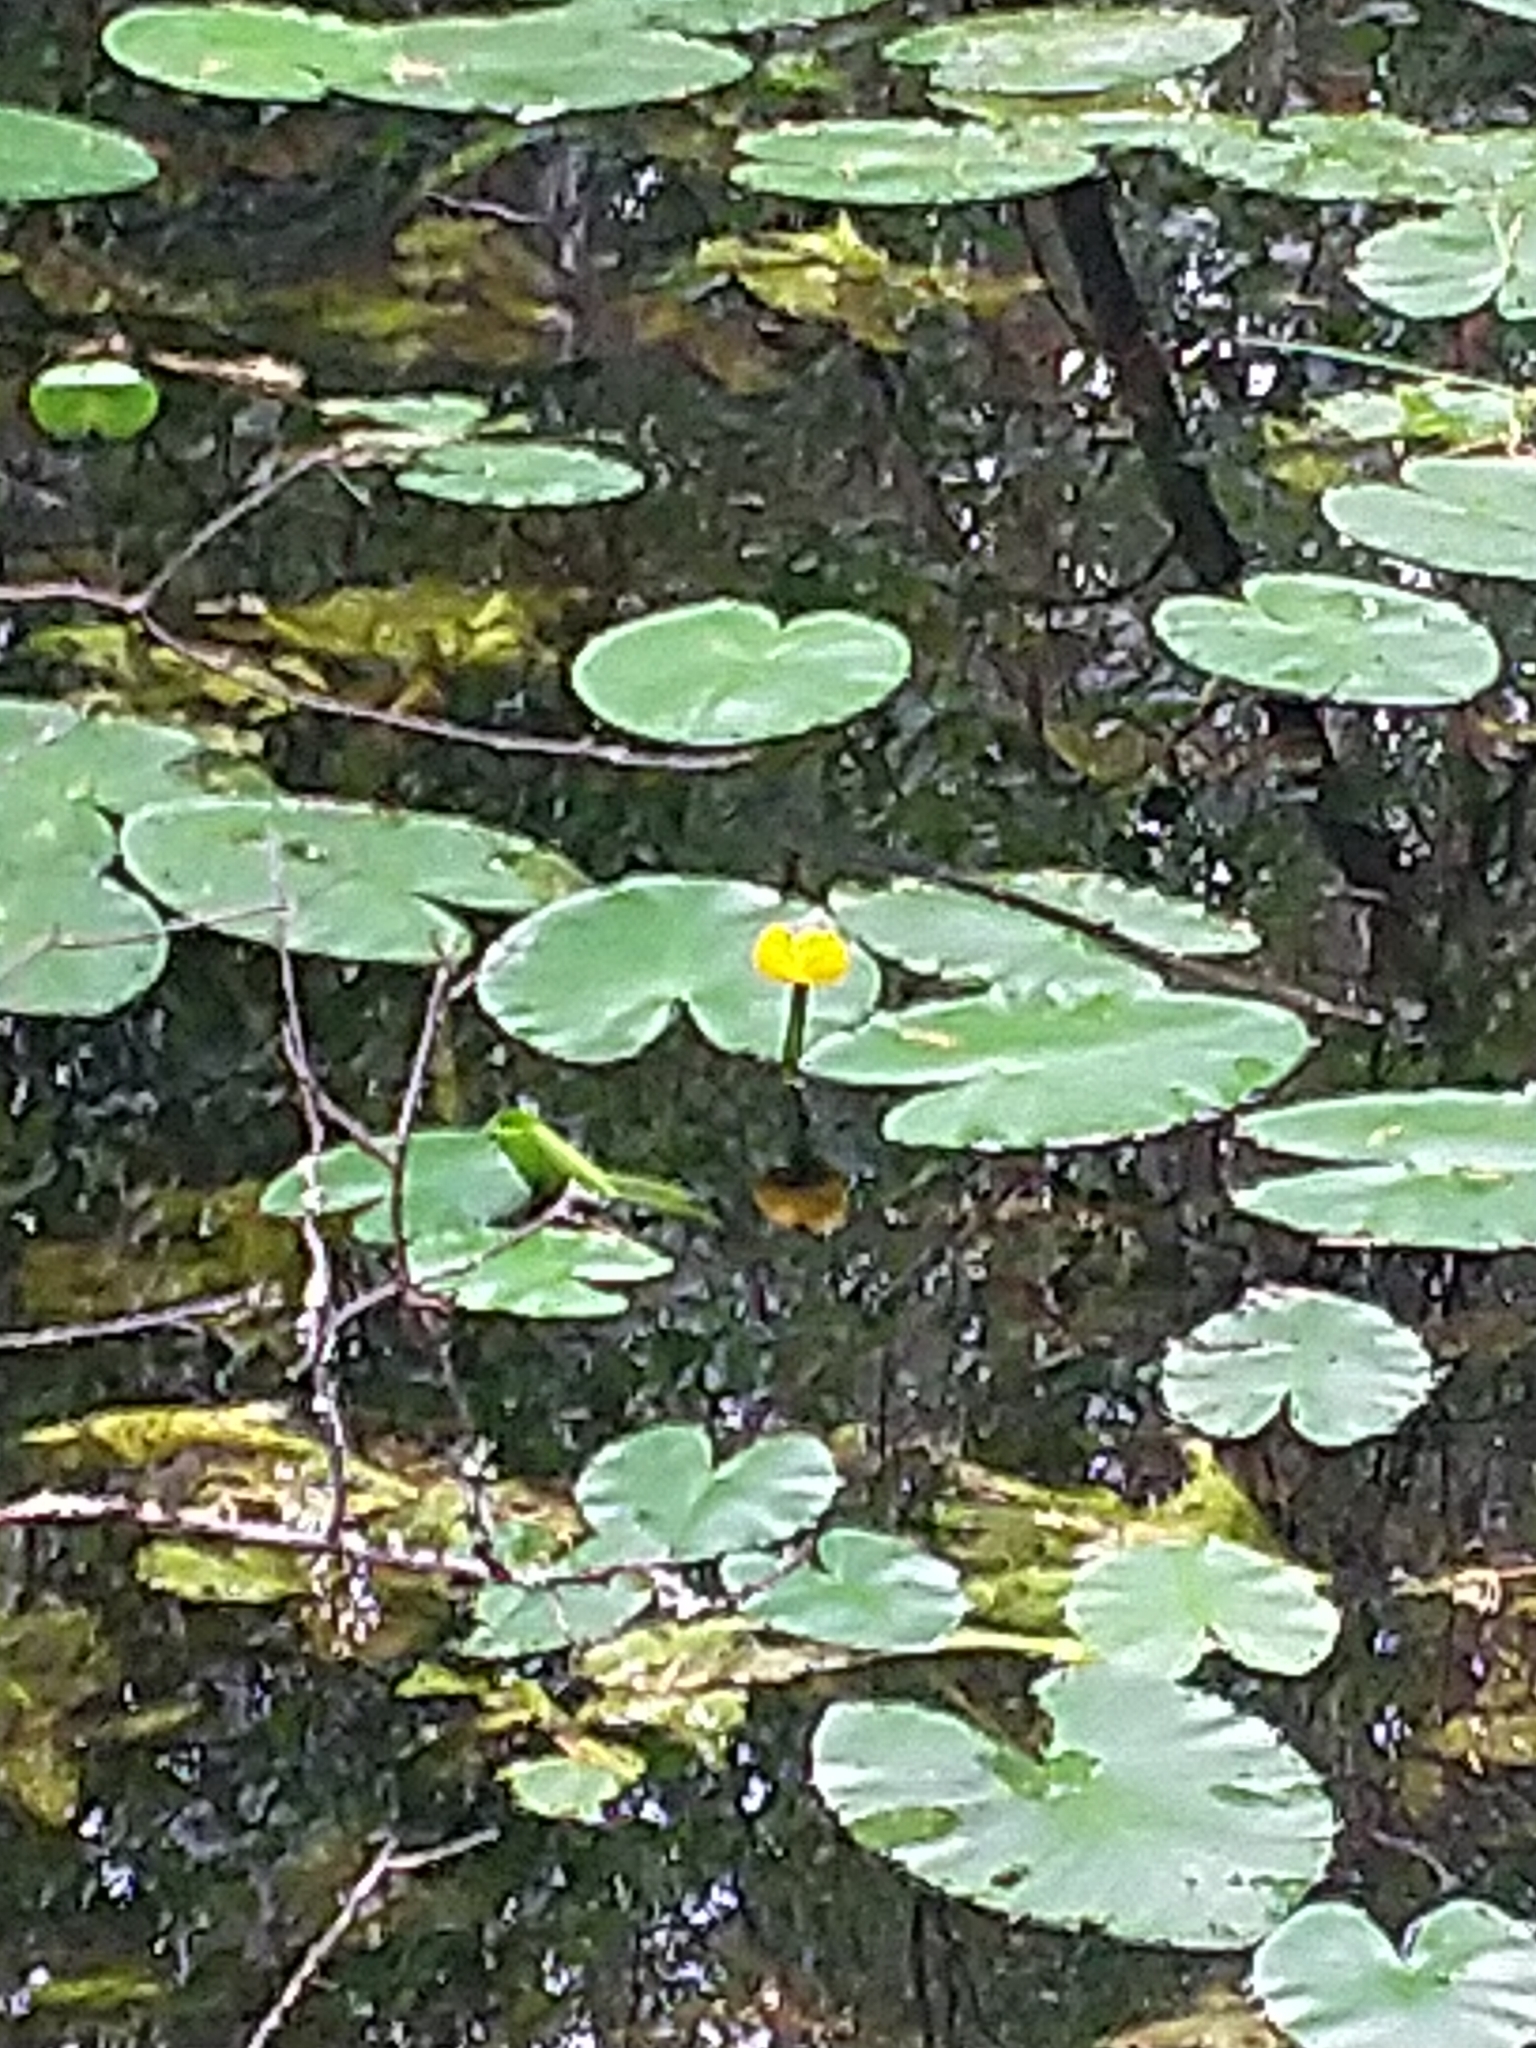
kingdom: Plantae
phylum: Tracheophyta
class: Magnoliopsida
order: Nymphaeales
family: Nymphaeaceae
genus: Nuphar
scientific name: Nuphar lutea
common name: Yellow water-lily
